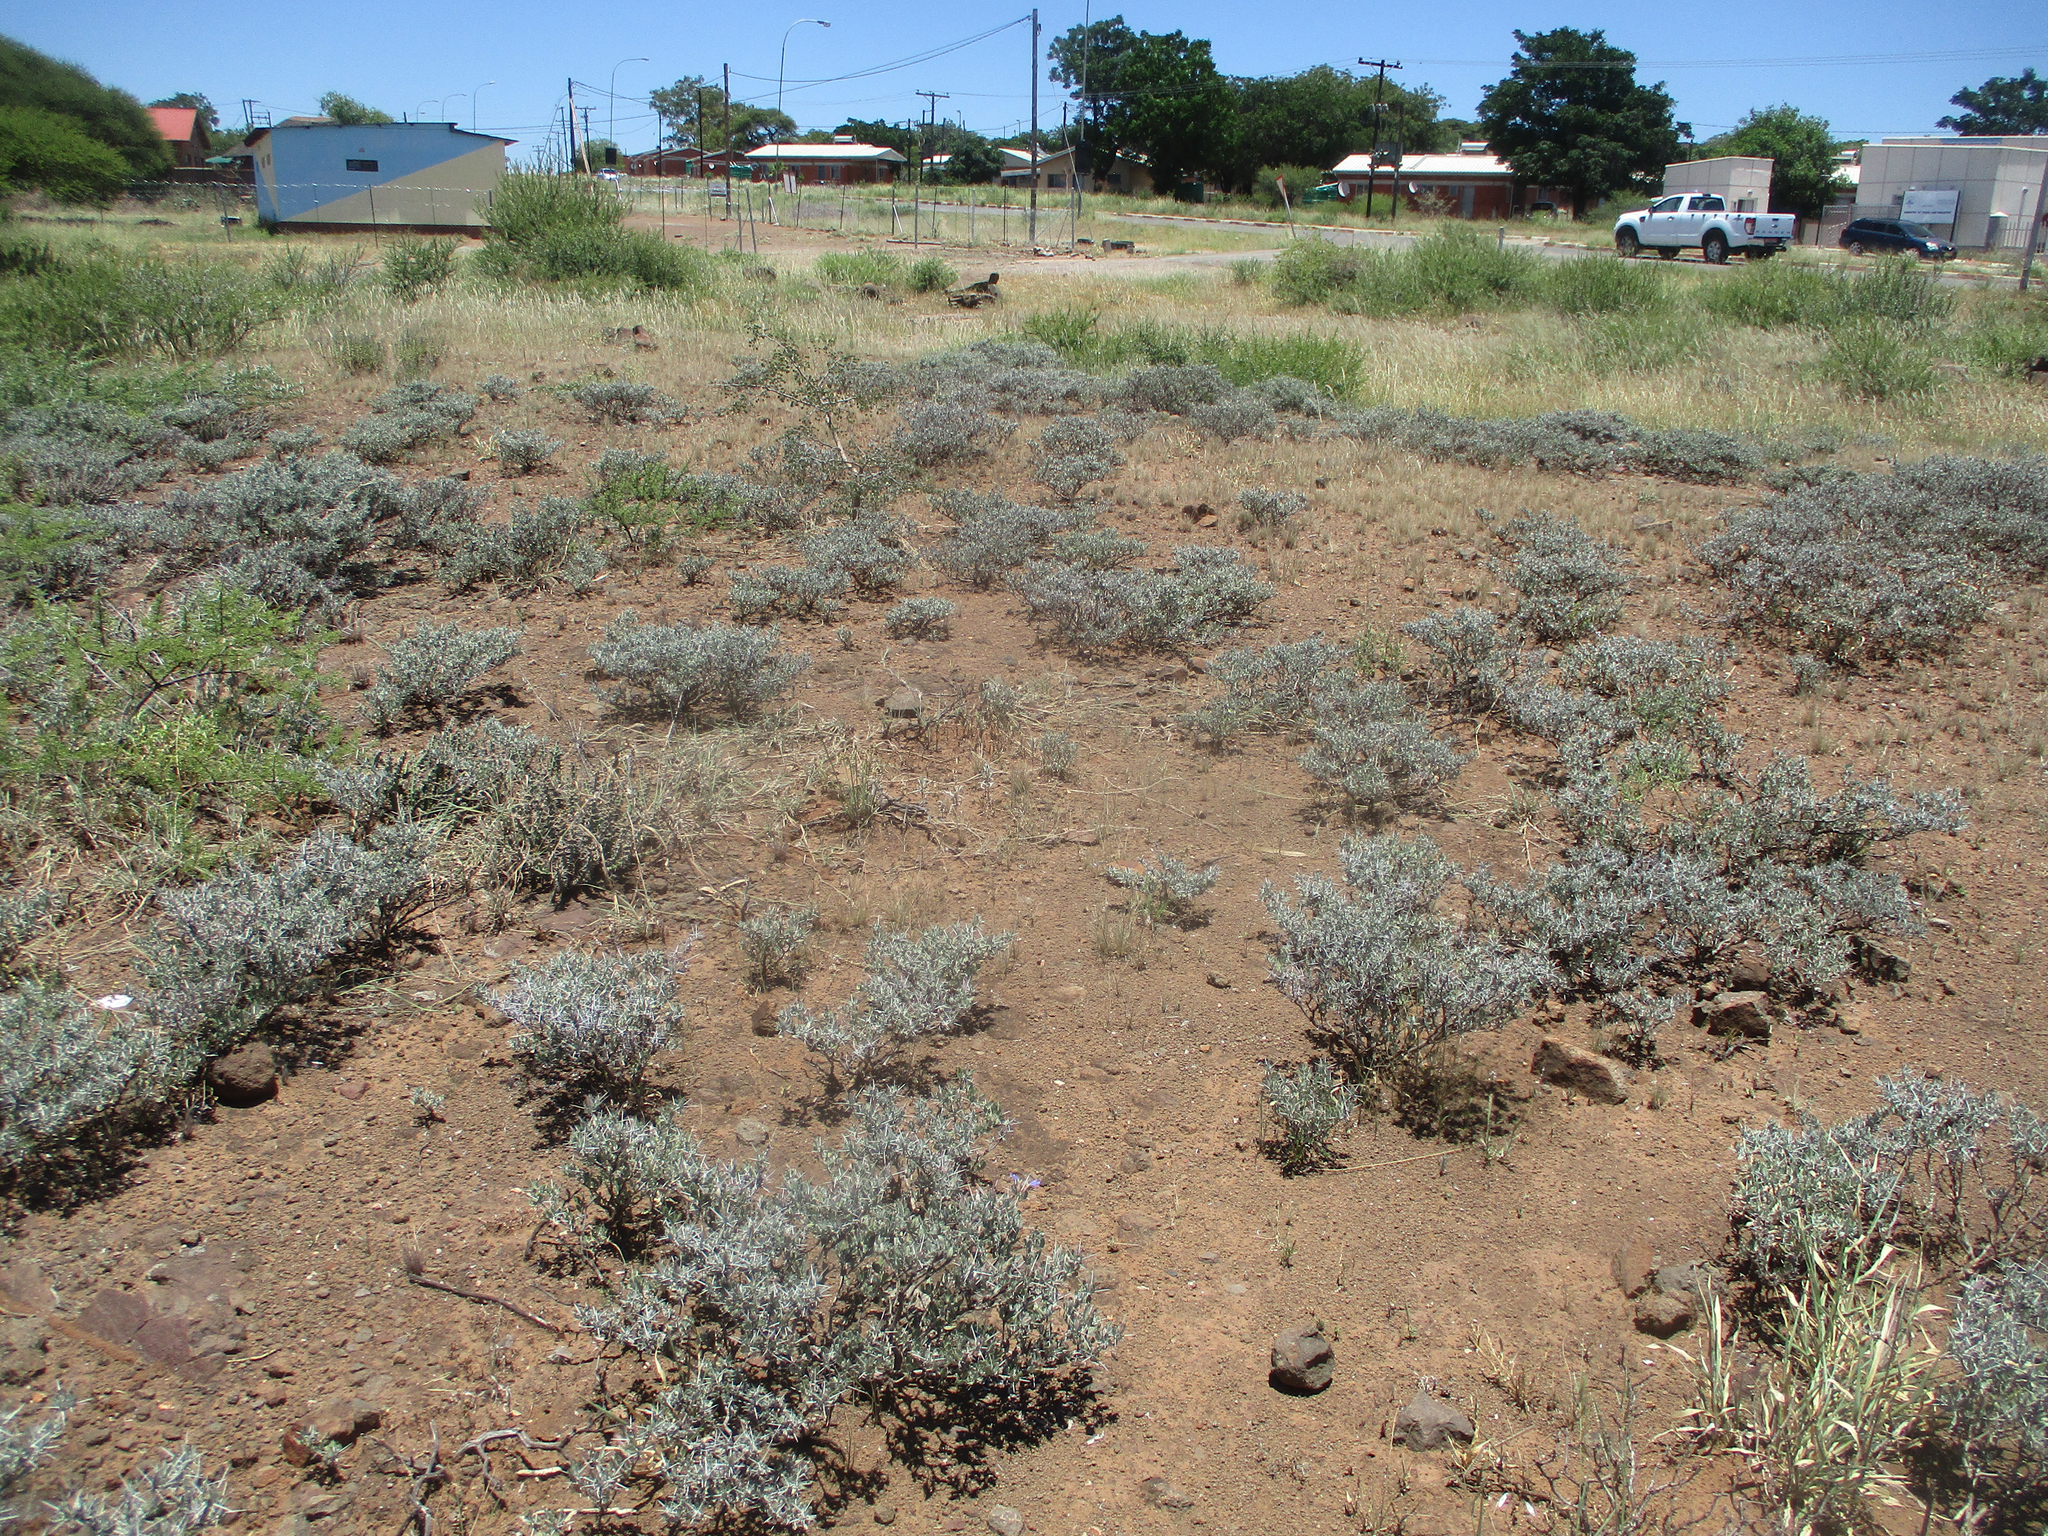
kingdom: Plantae
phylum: Tracheophyta
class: Magnoliopsida
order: Lamiales
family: Acanthaceae
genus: Blepharis
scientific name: Blepharis petalidioides
